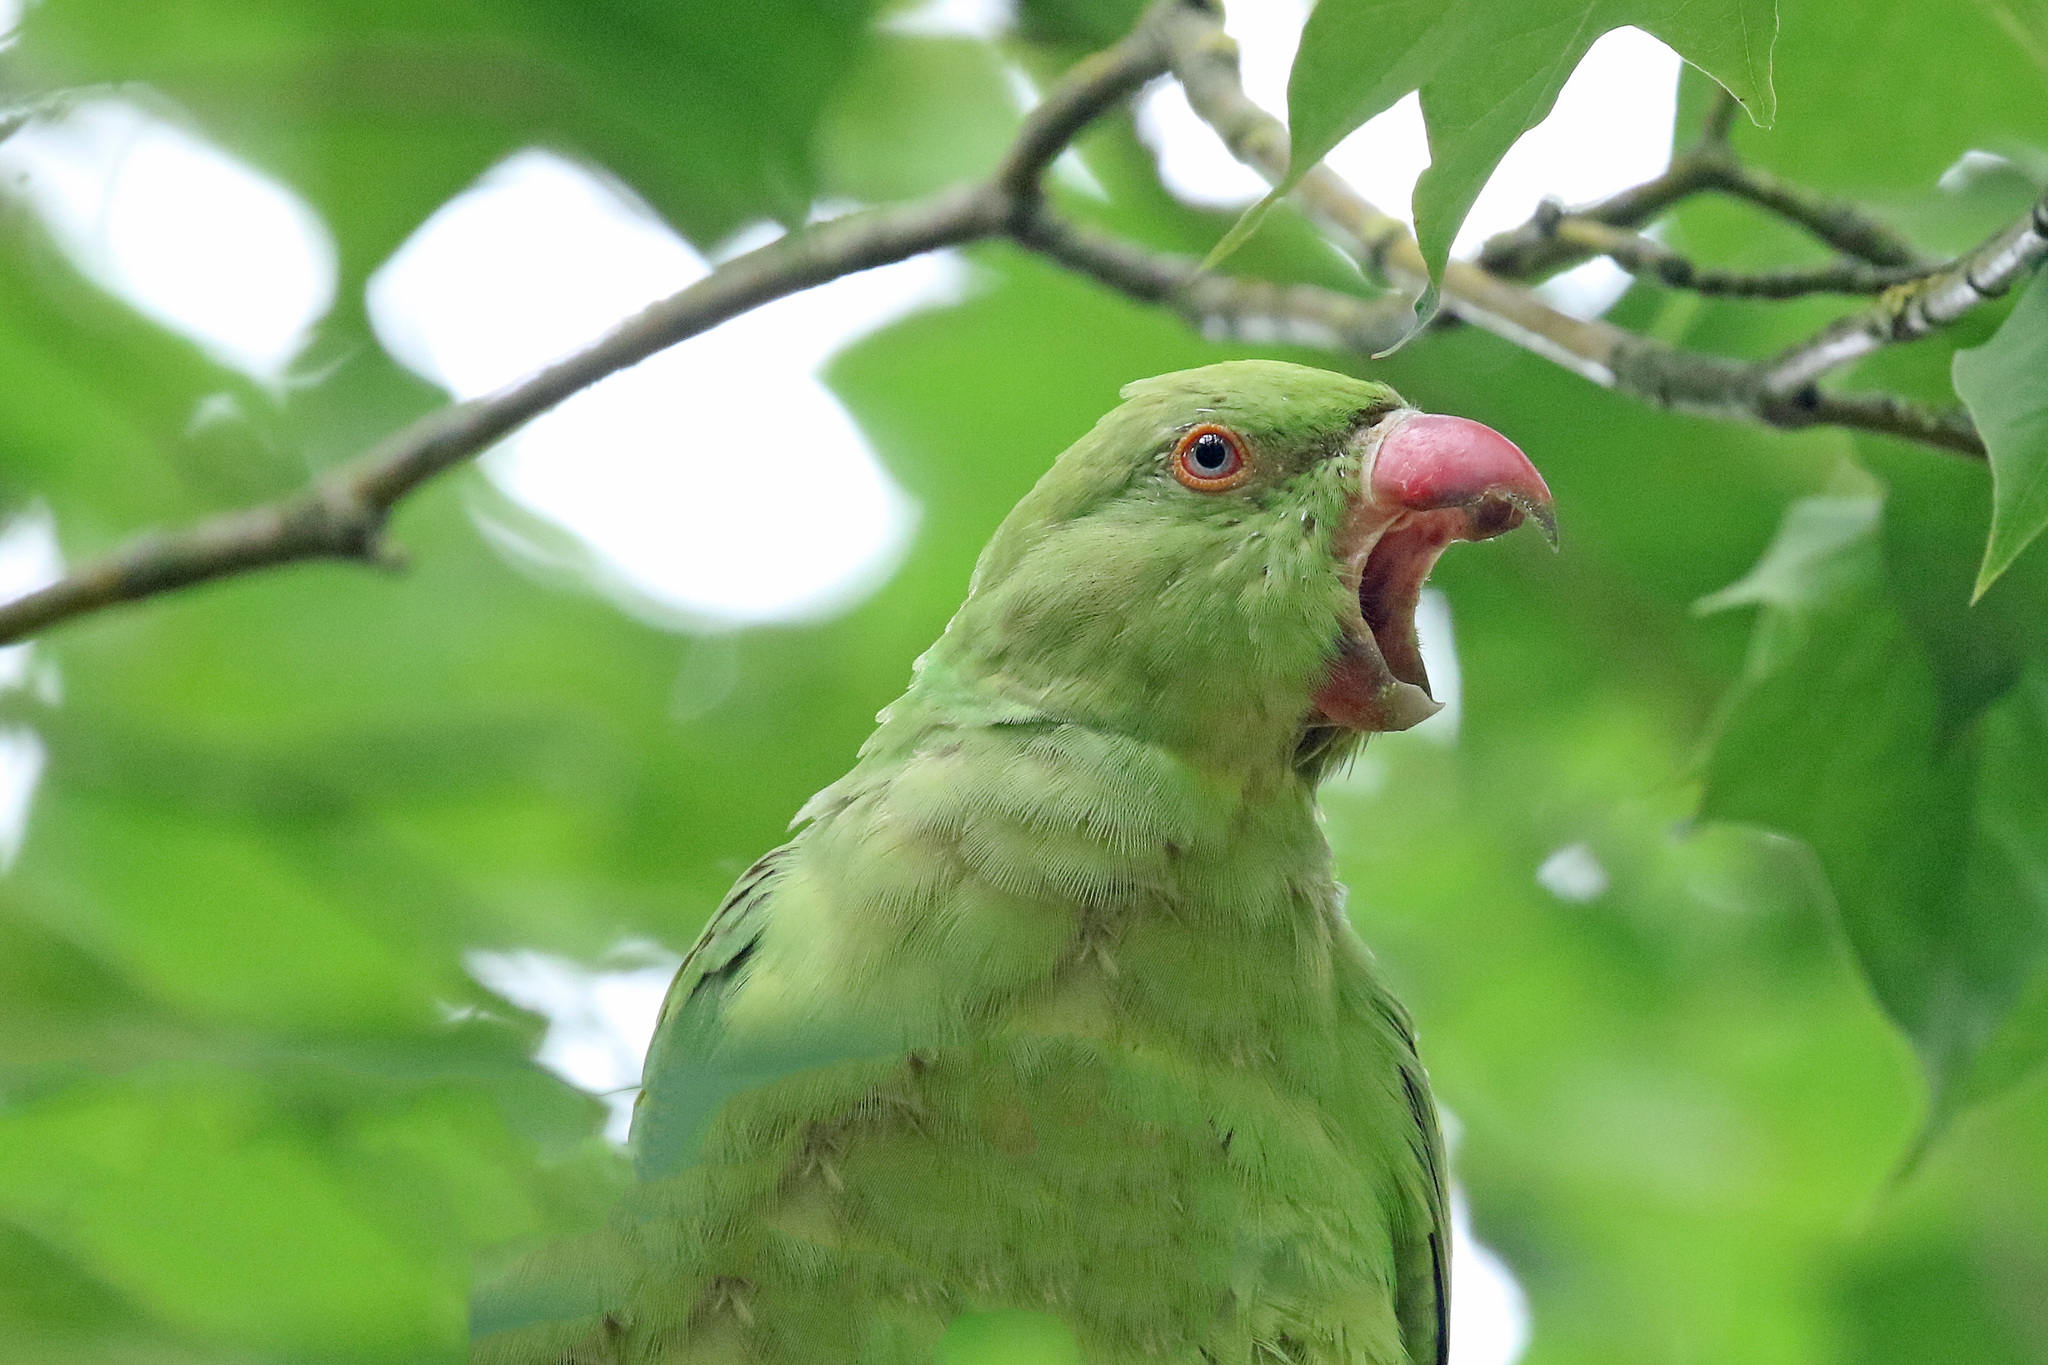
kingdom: Animalia
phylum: Chordata
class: Aves
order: Psittaciformes
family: Psittacidae
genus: Psittacula
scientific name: Psittacula krameri
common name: Rose-ringed parakeet
